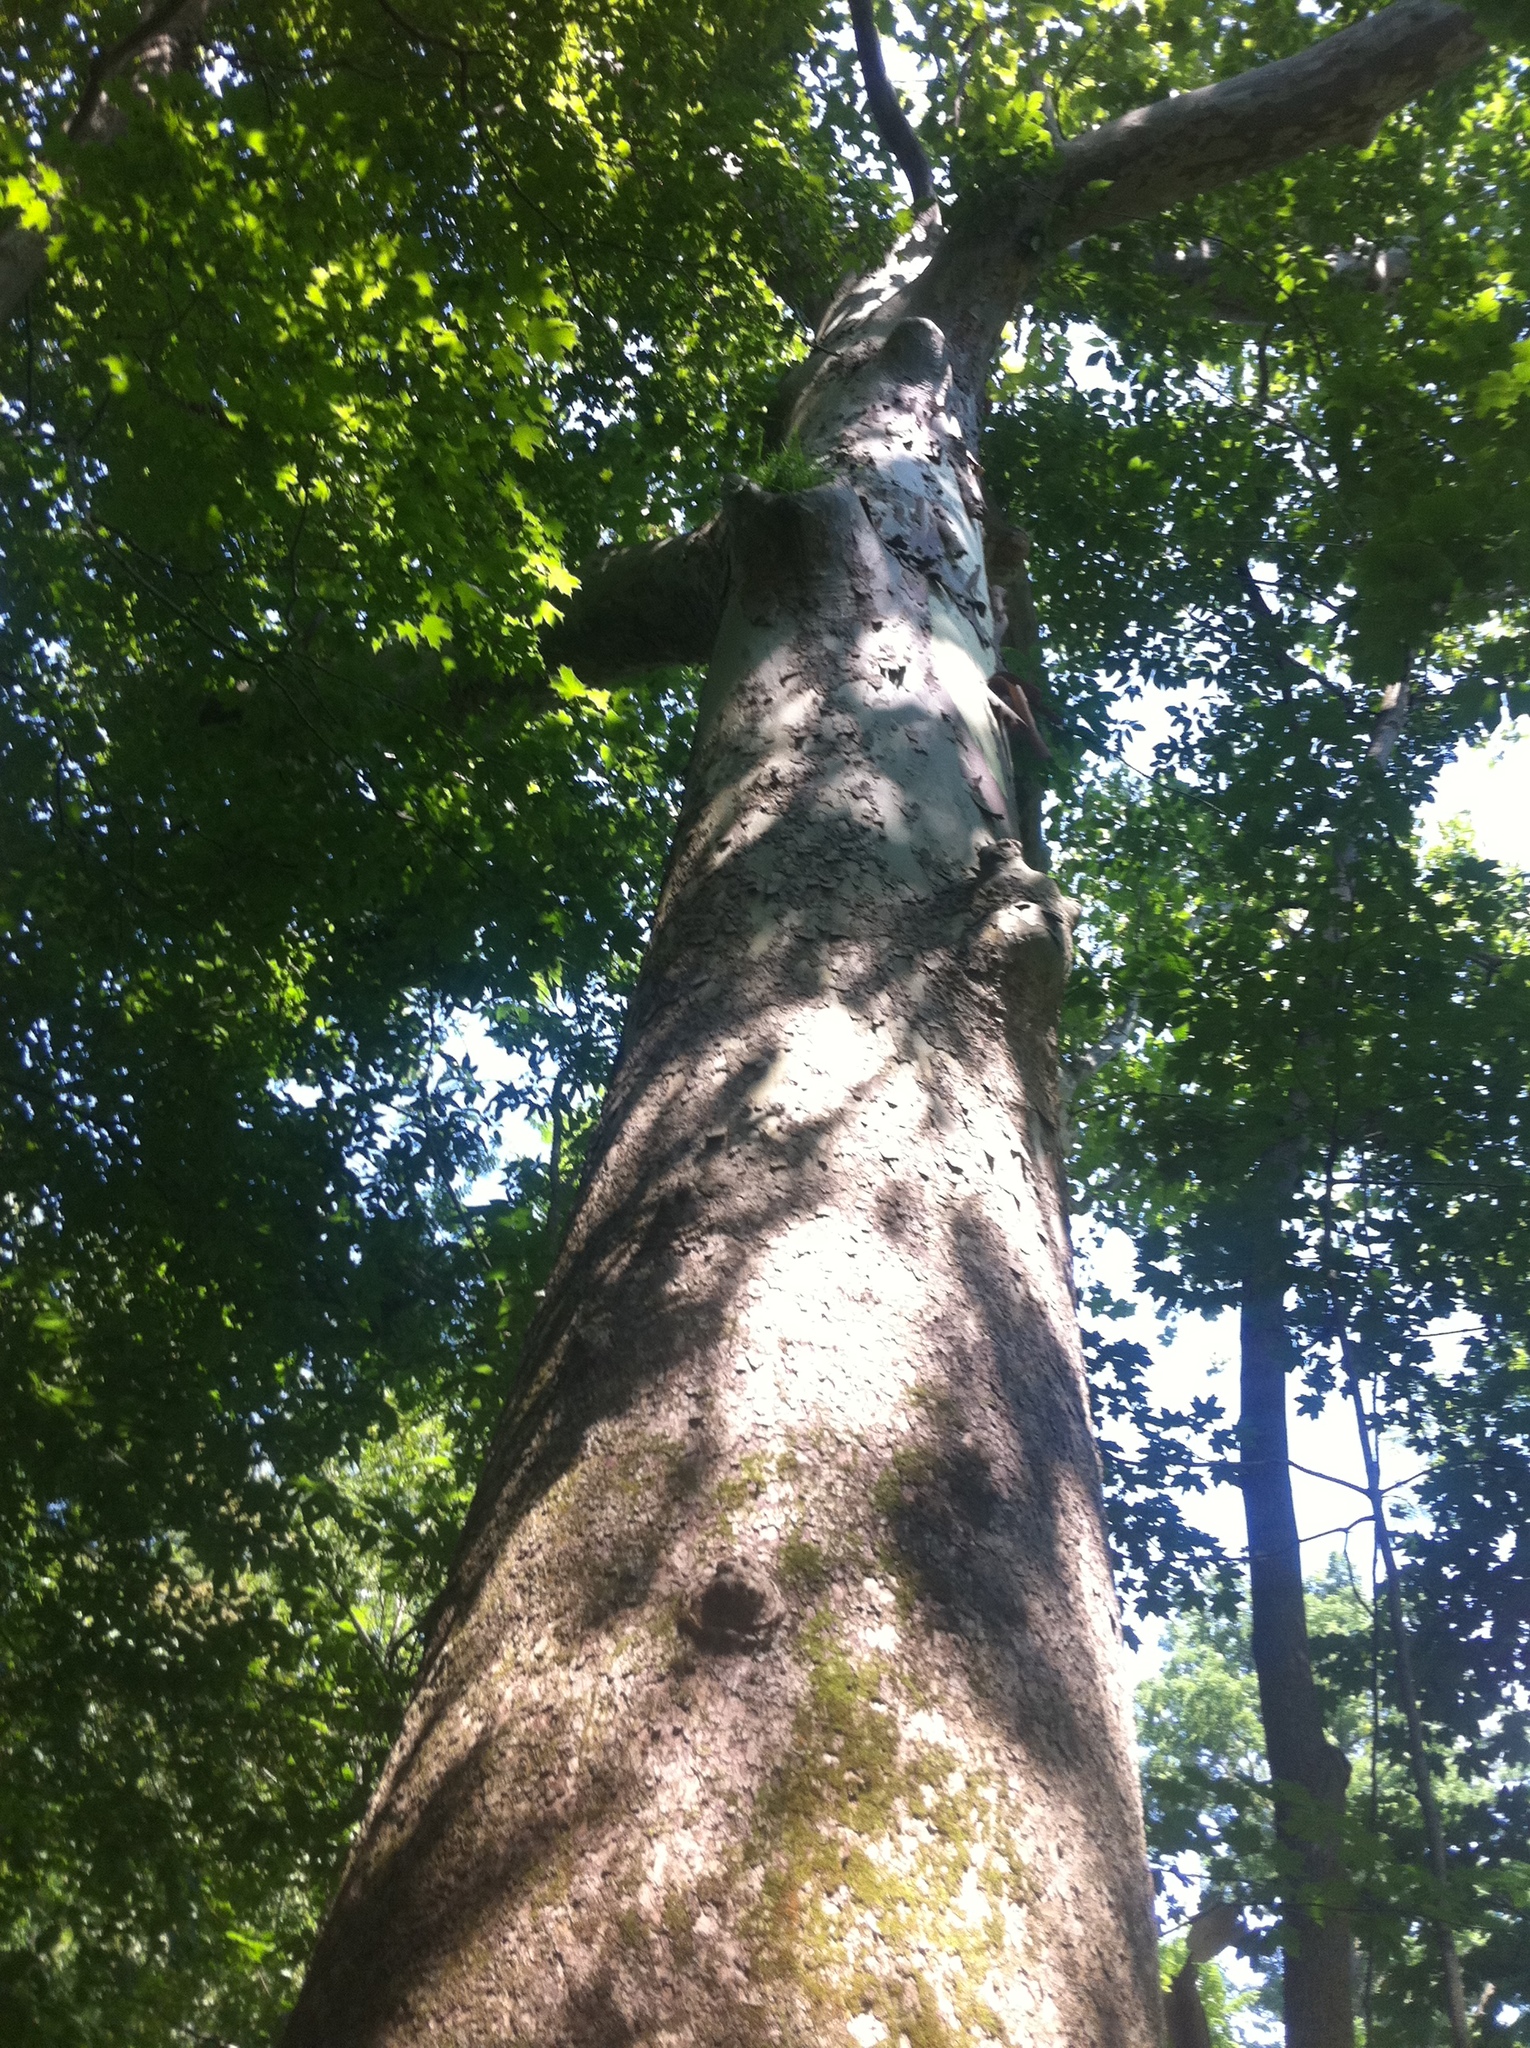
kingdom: Plantae
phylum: Tracheophyta
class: Magnoliopsida
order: Proteales
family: Platanaceae
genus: Platanus
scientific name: Platanus occidentalis
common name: American sycamore
